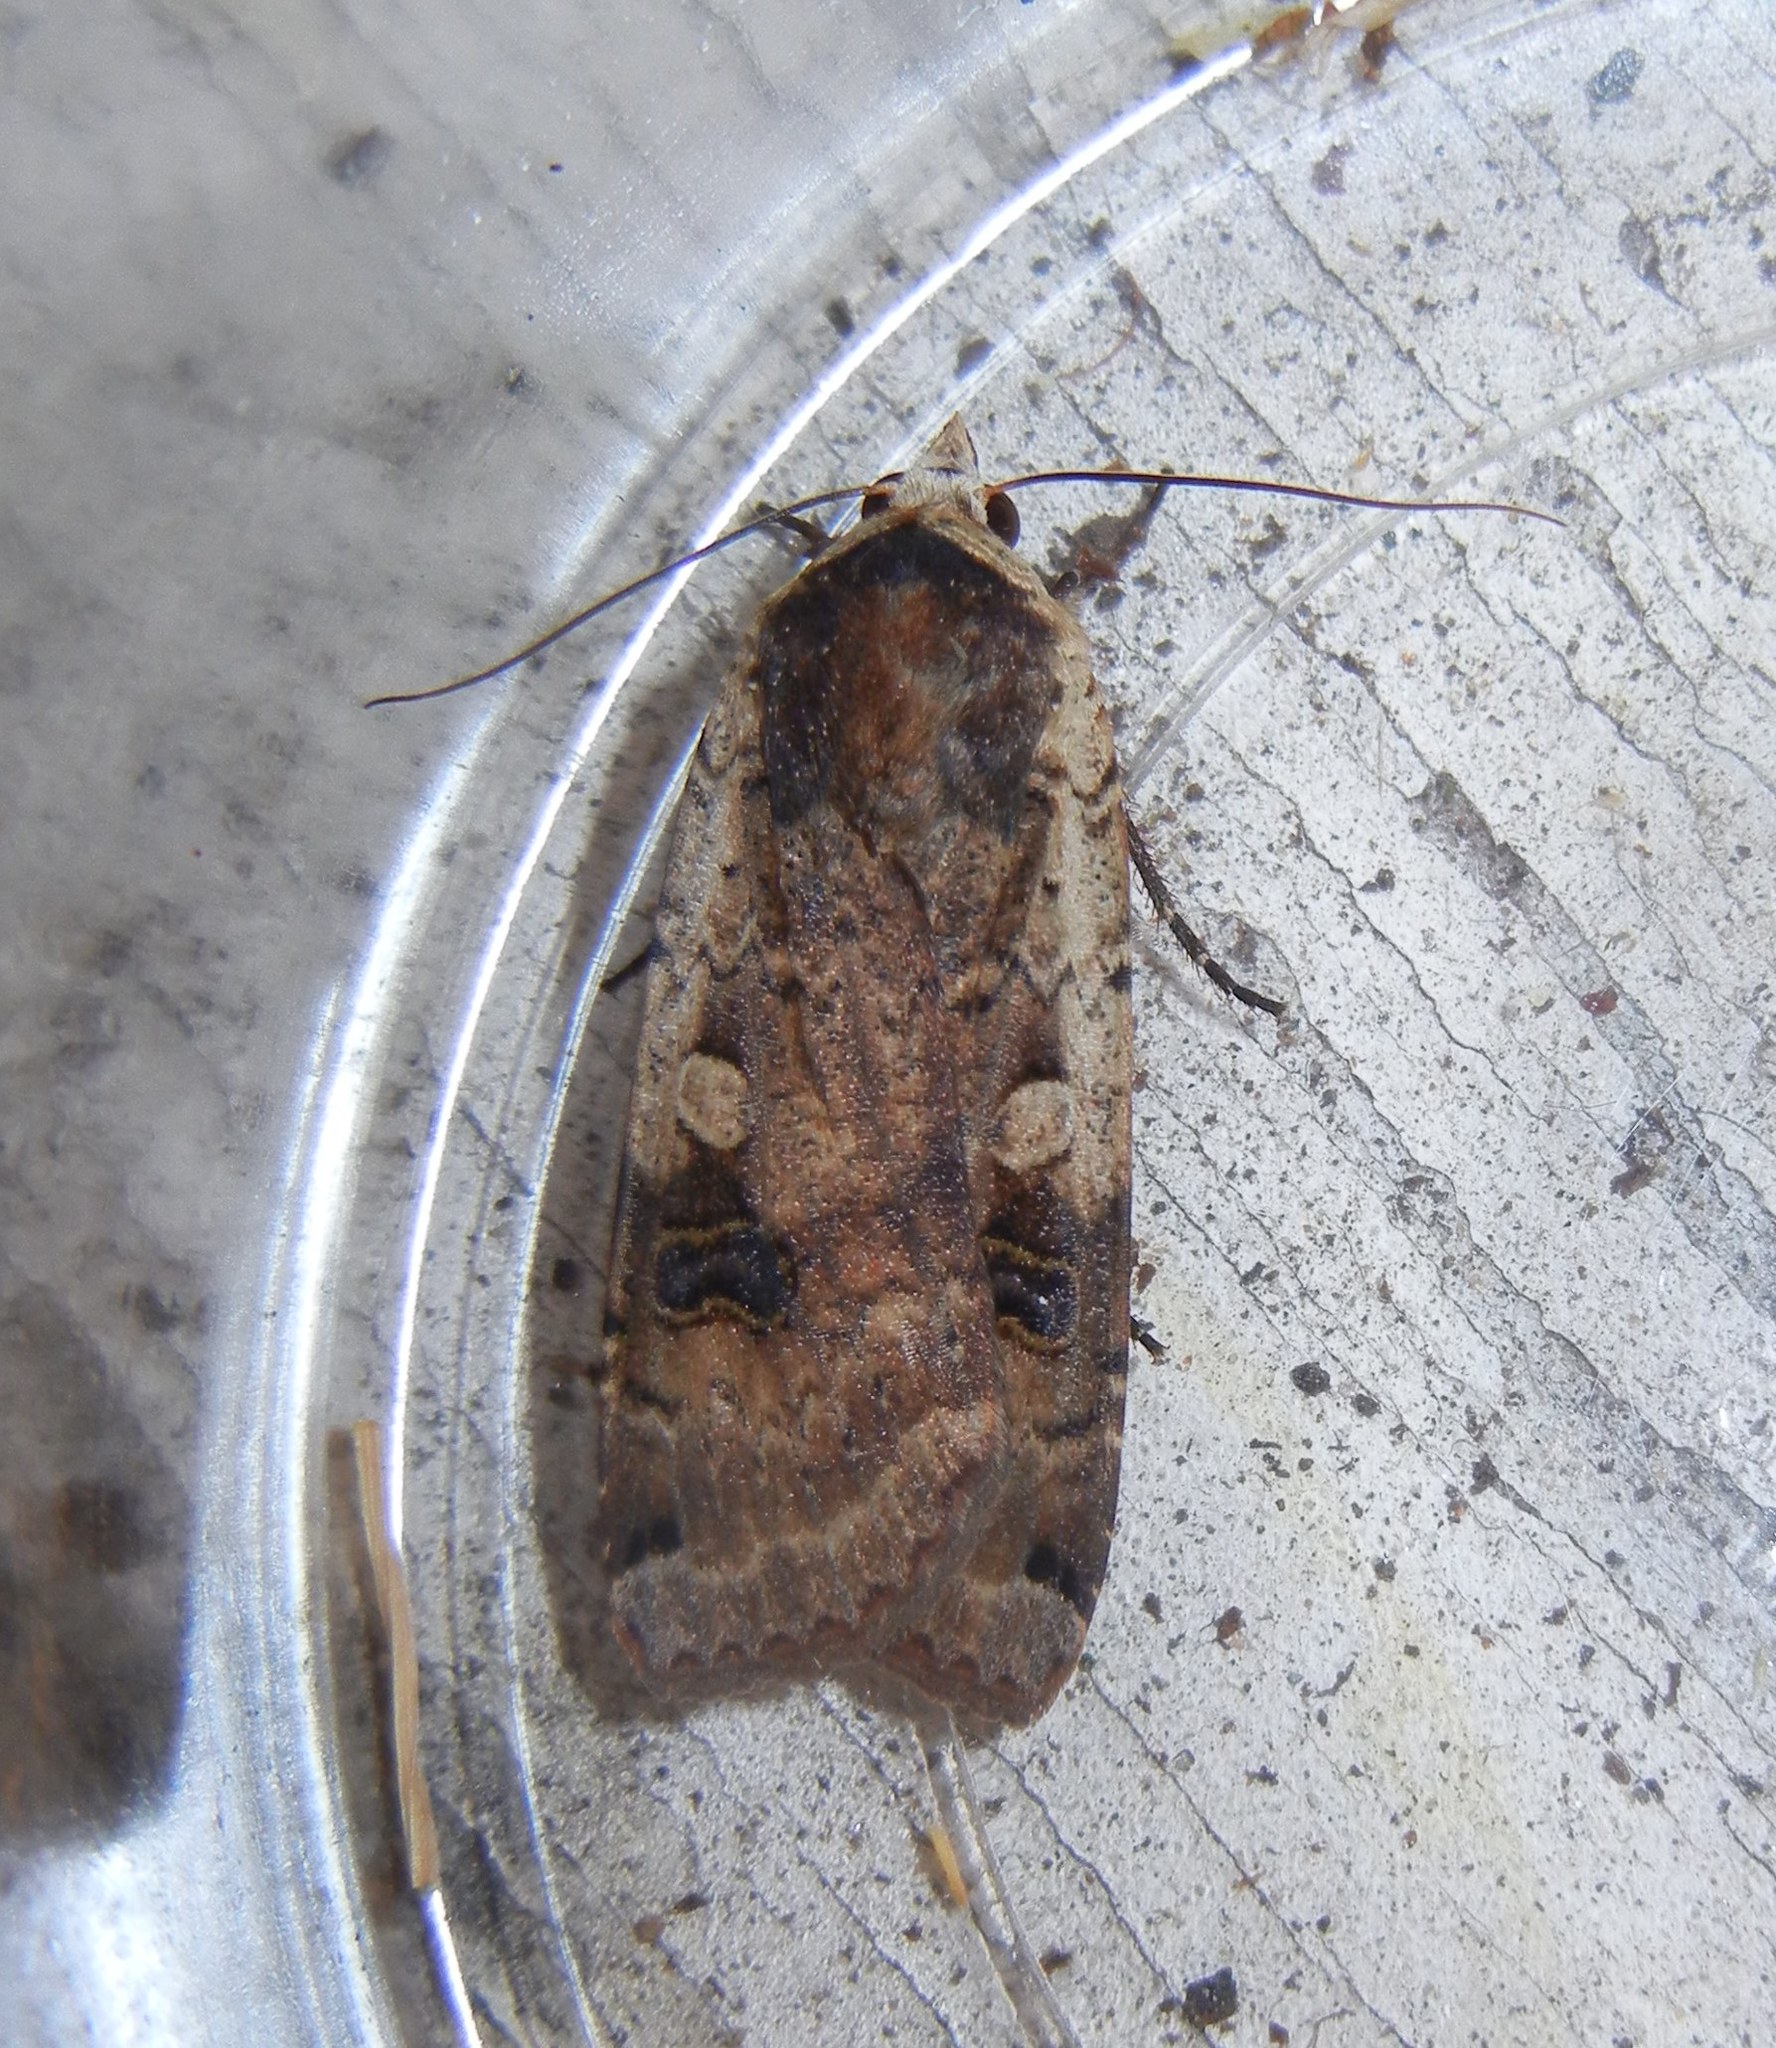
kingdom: Animalia
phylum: Arthropoda
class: Insecta
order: Lepidoptera
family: Noctuidae
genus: Noctua
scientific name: Noctua pronuba
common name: Large yellow underwing
